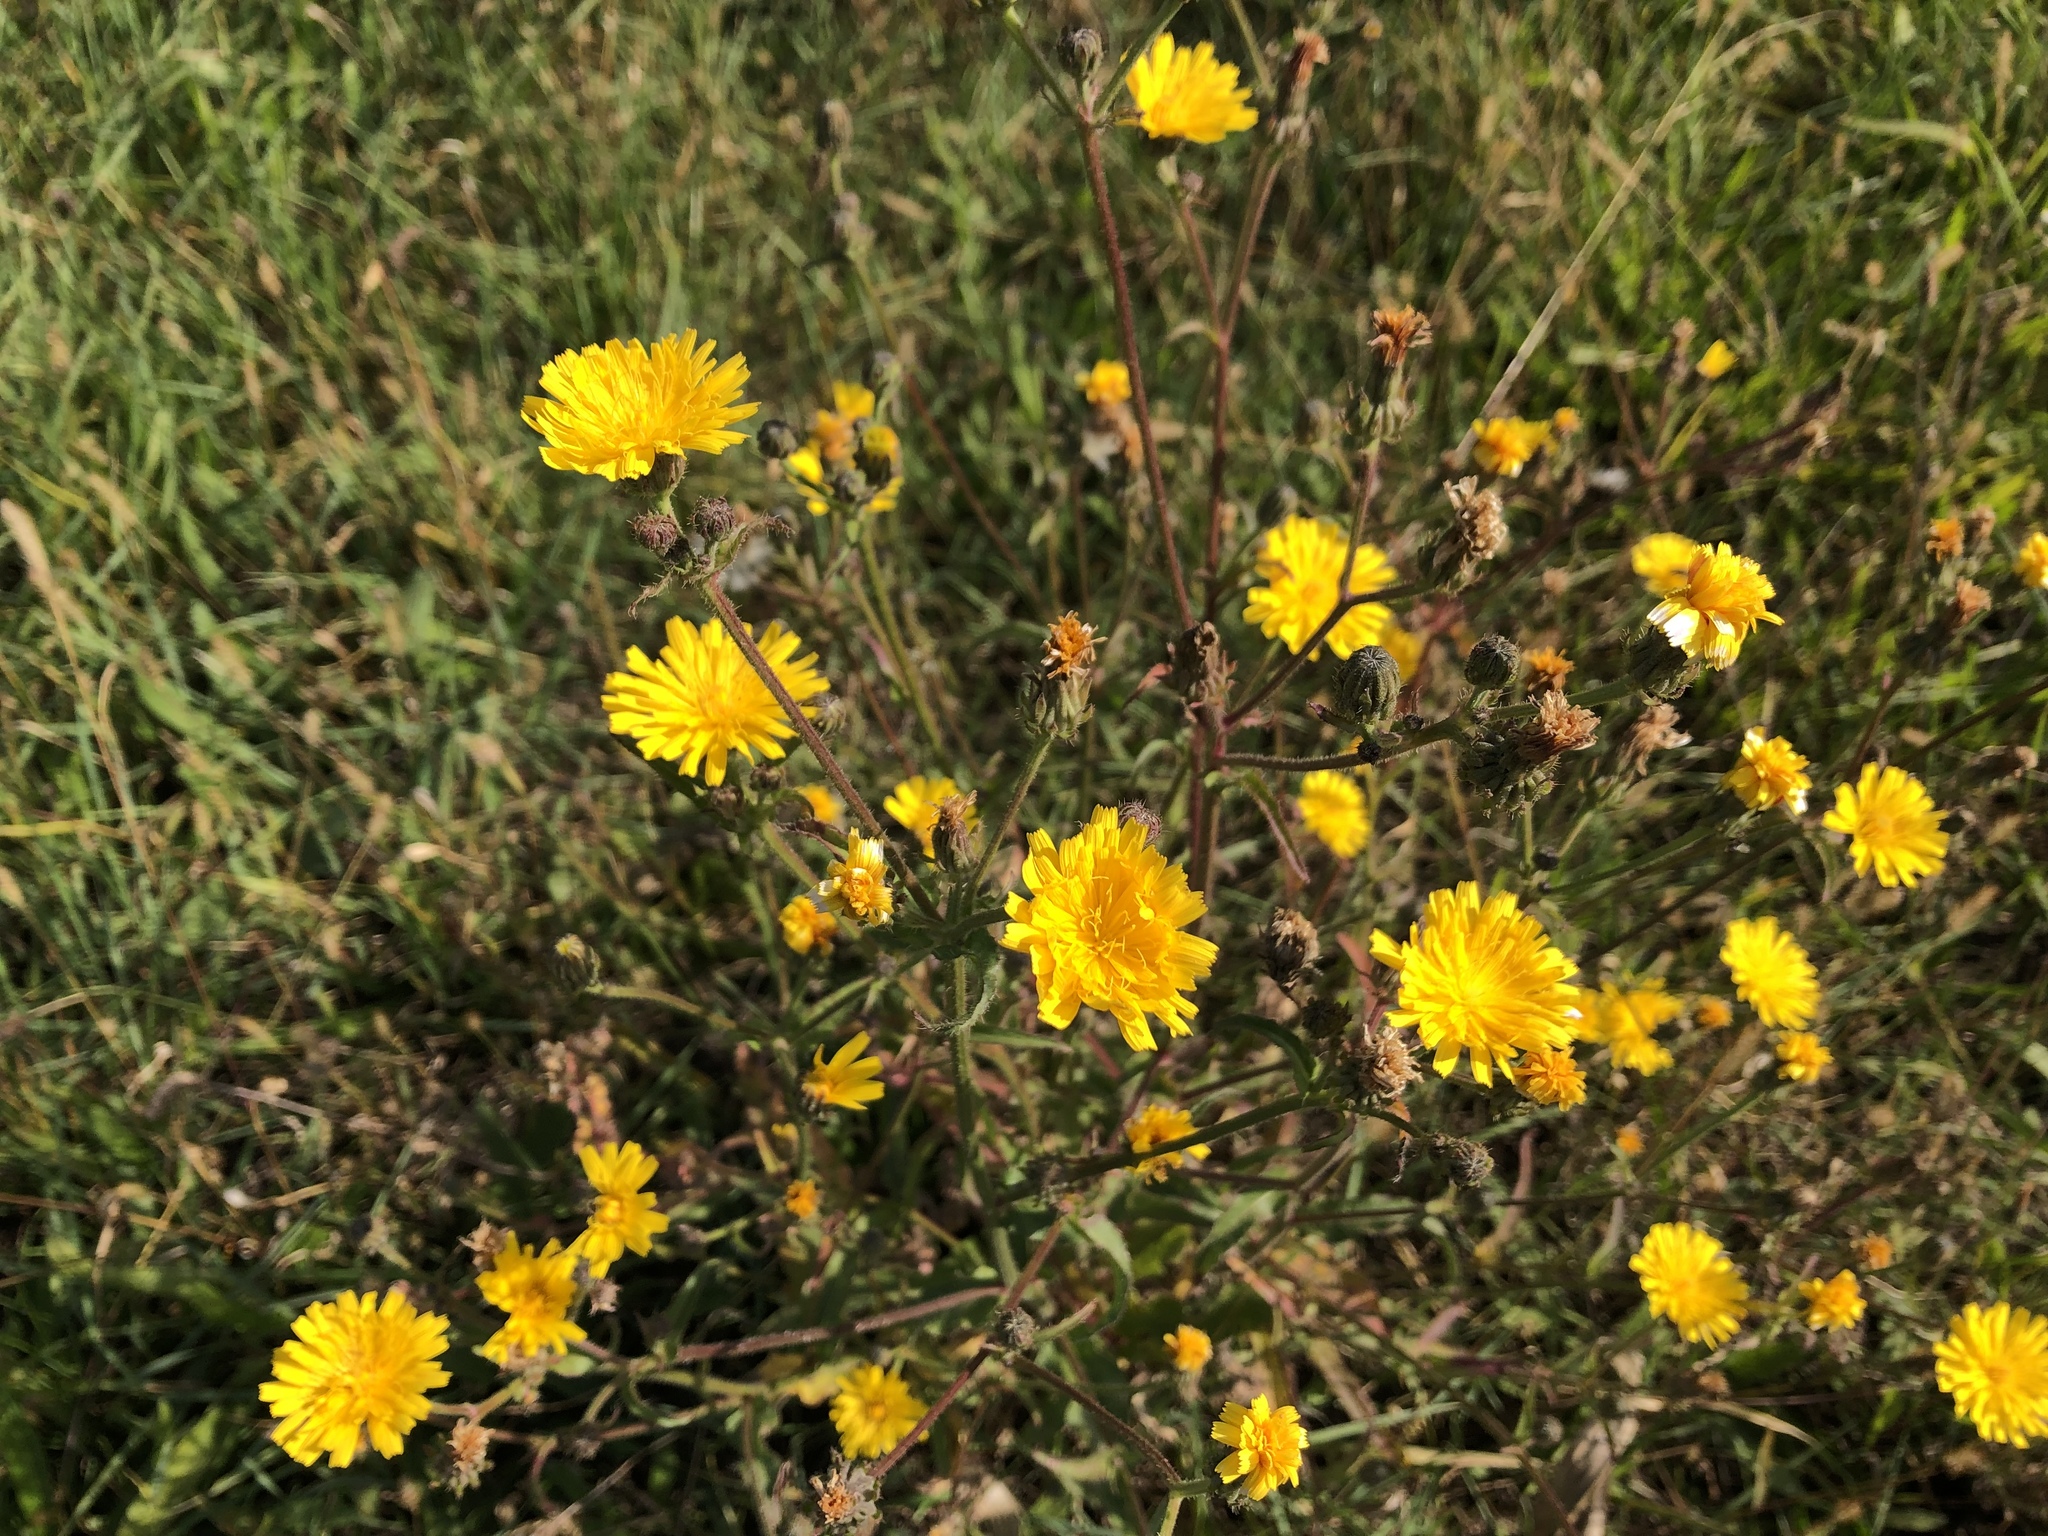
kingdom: Plantae
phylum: Tracheophyta
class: Magnoliopsida
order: Asterales
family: Asteraceae
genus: Picris
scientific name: Picris hieracioides
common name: Hawkweed oxtongue
